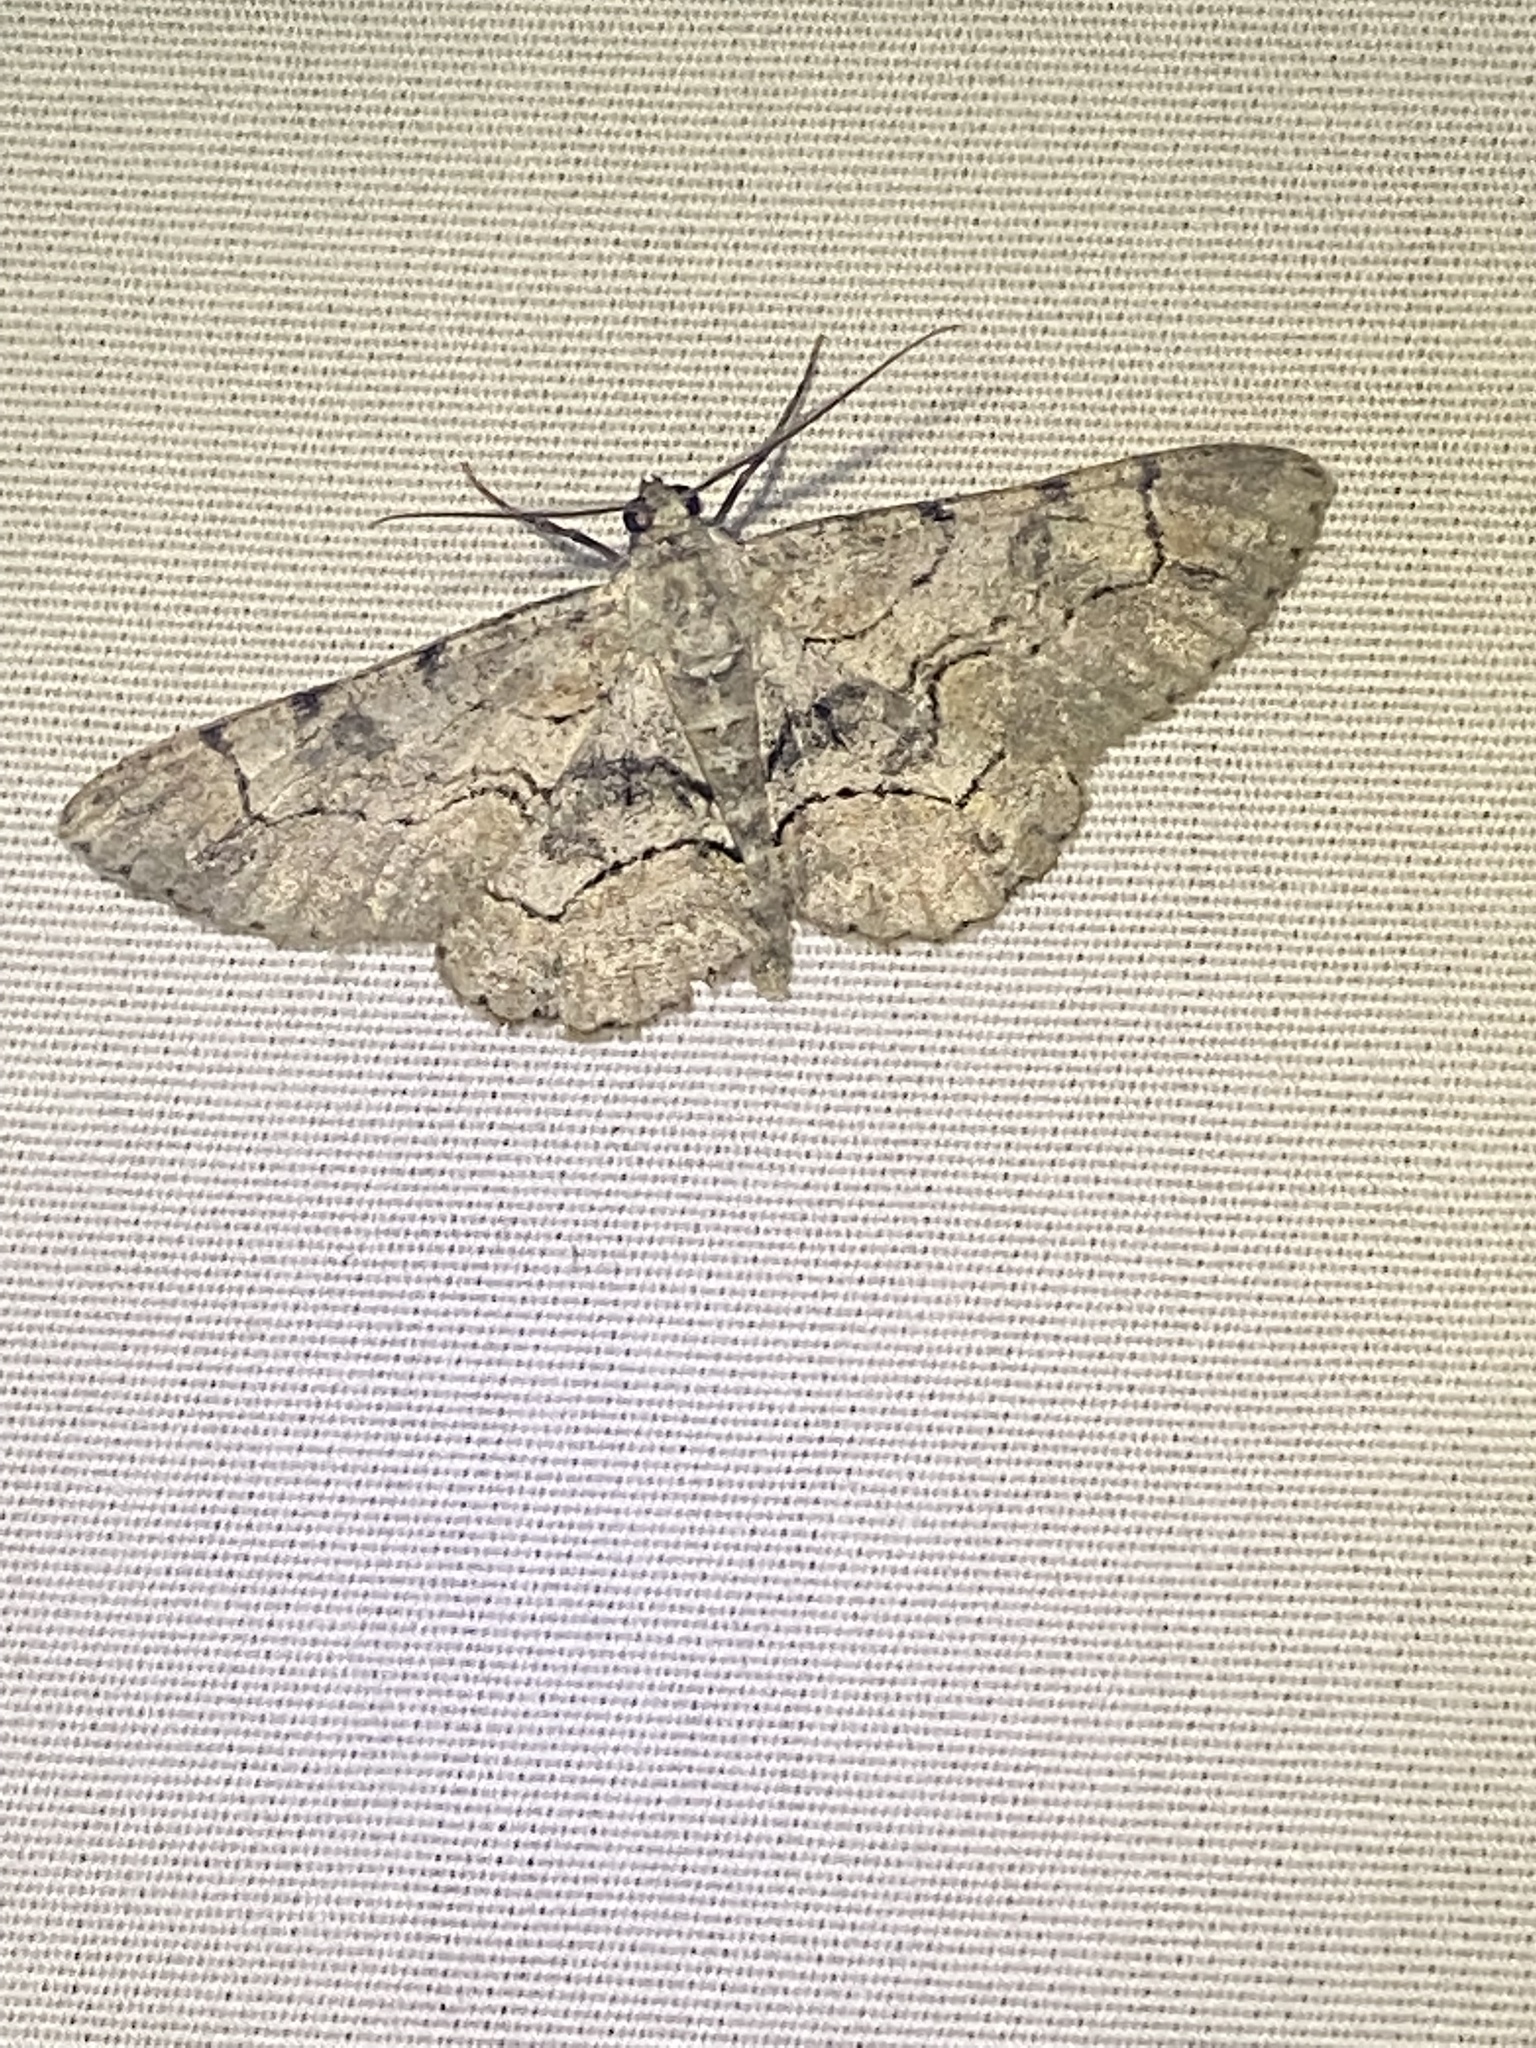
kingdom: Animalia
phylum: Arthropoda
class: Insecta
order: Lepidoptera
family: Geometridae
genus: Iridopsis
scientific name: Iridopsis larvaria
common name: Bent-line gray
